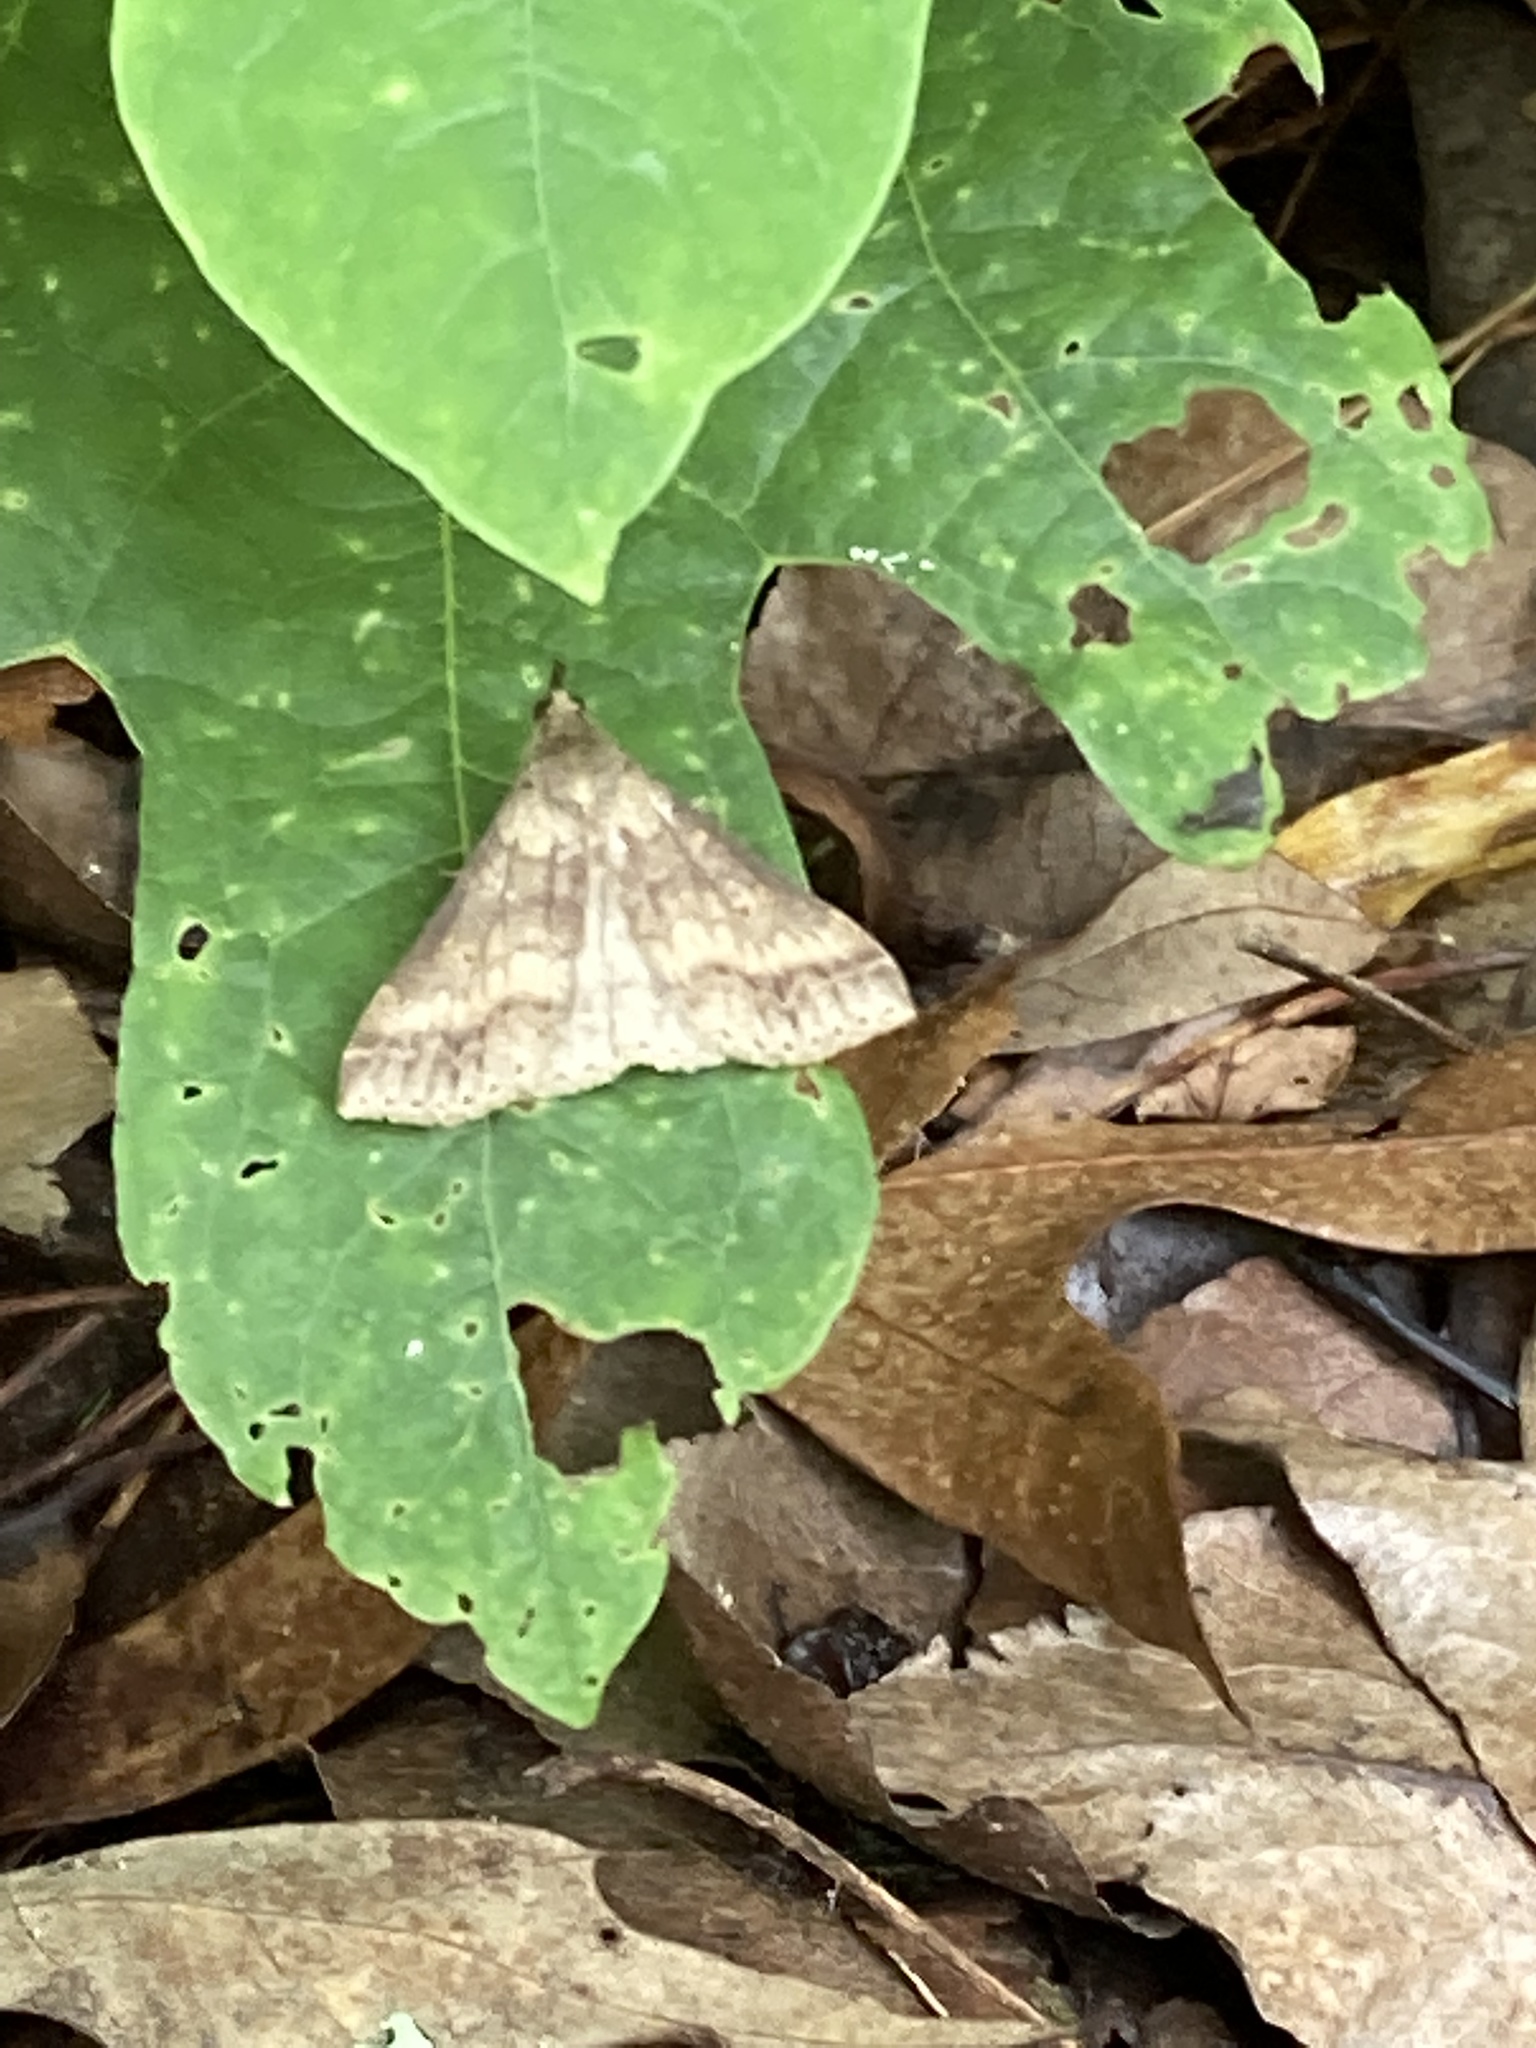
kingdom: Animalia
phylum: Arthropoda
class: Insecta
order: Lepidoptera
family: Erebidae
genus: Renia
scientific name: Renia discoloralis
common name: Discolored renia moth
